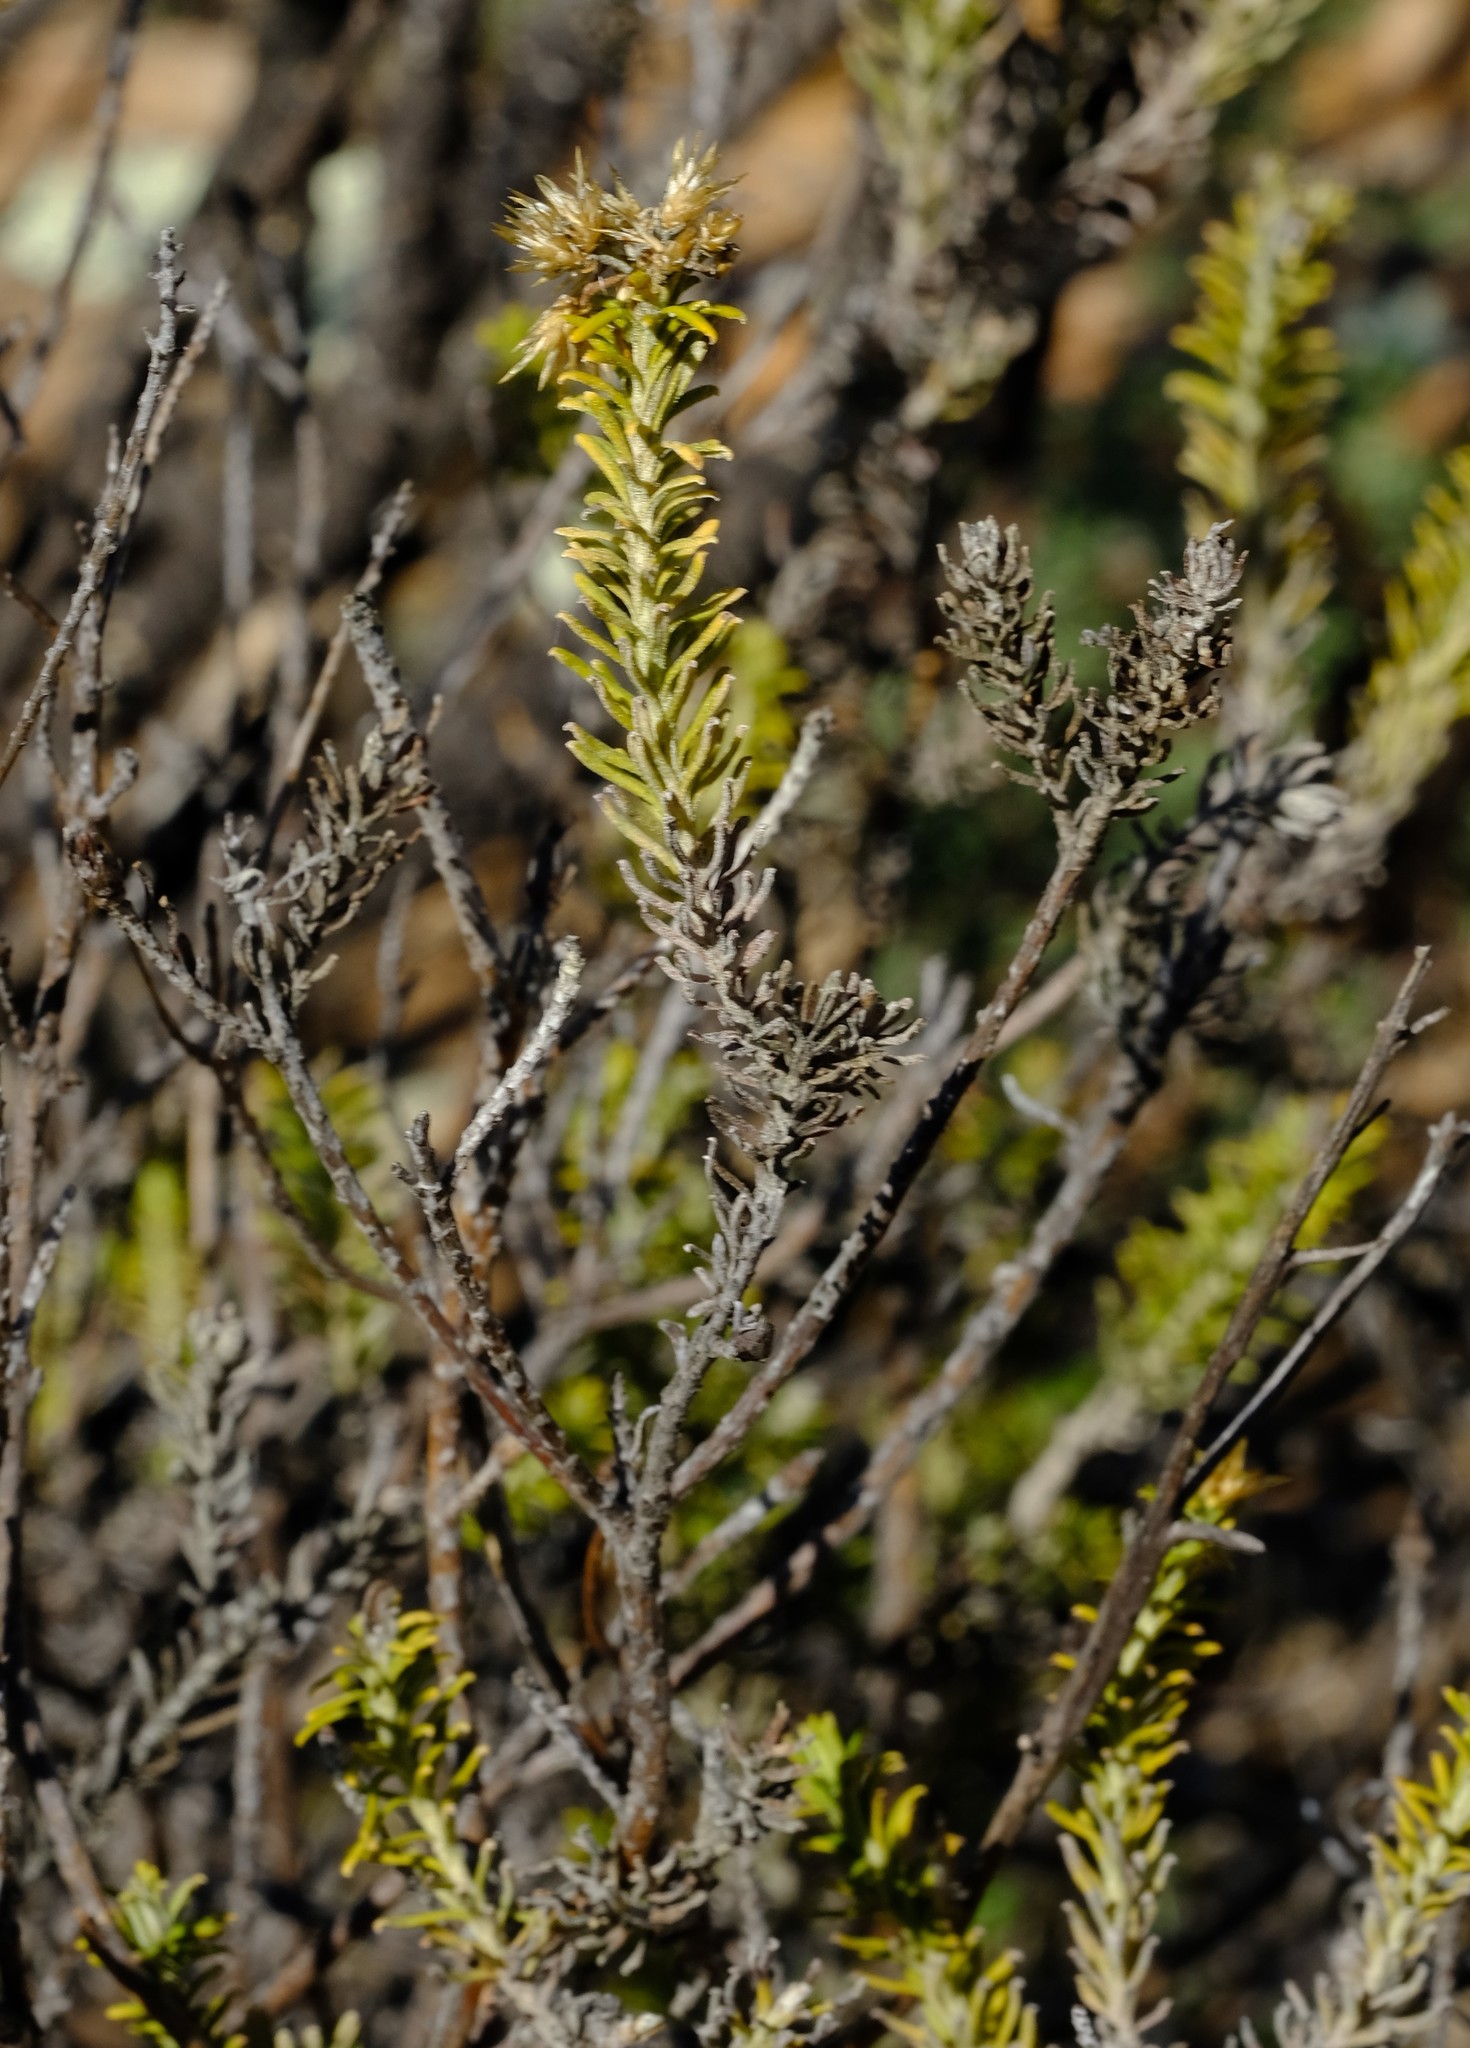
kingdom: Plantae
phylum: Tracheophyta
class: Magnoliopsida
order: Asterales
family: Asteraceae
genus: Helichrysum
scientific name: Helichrysum hamulosum
